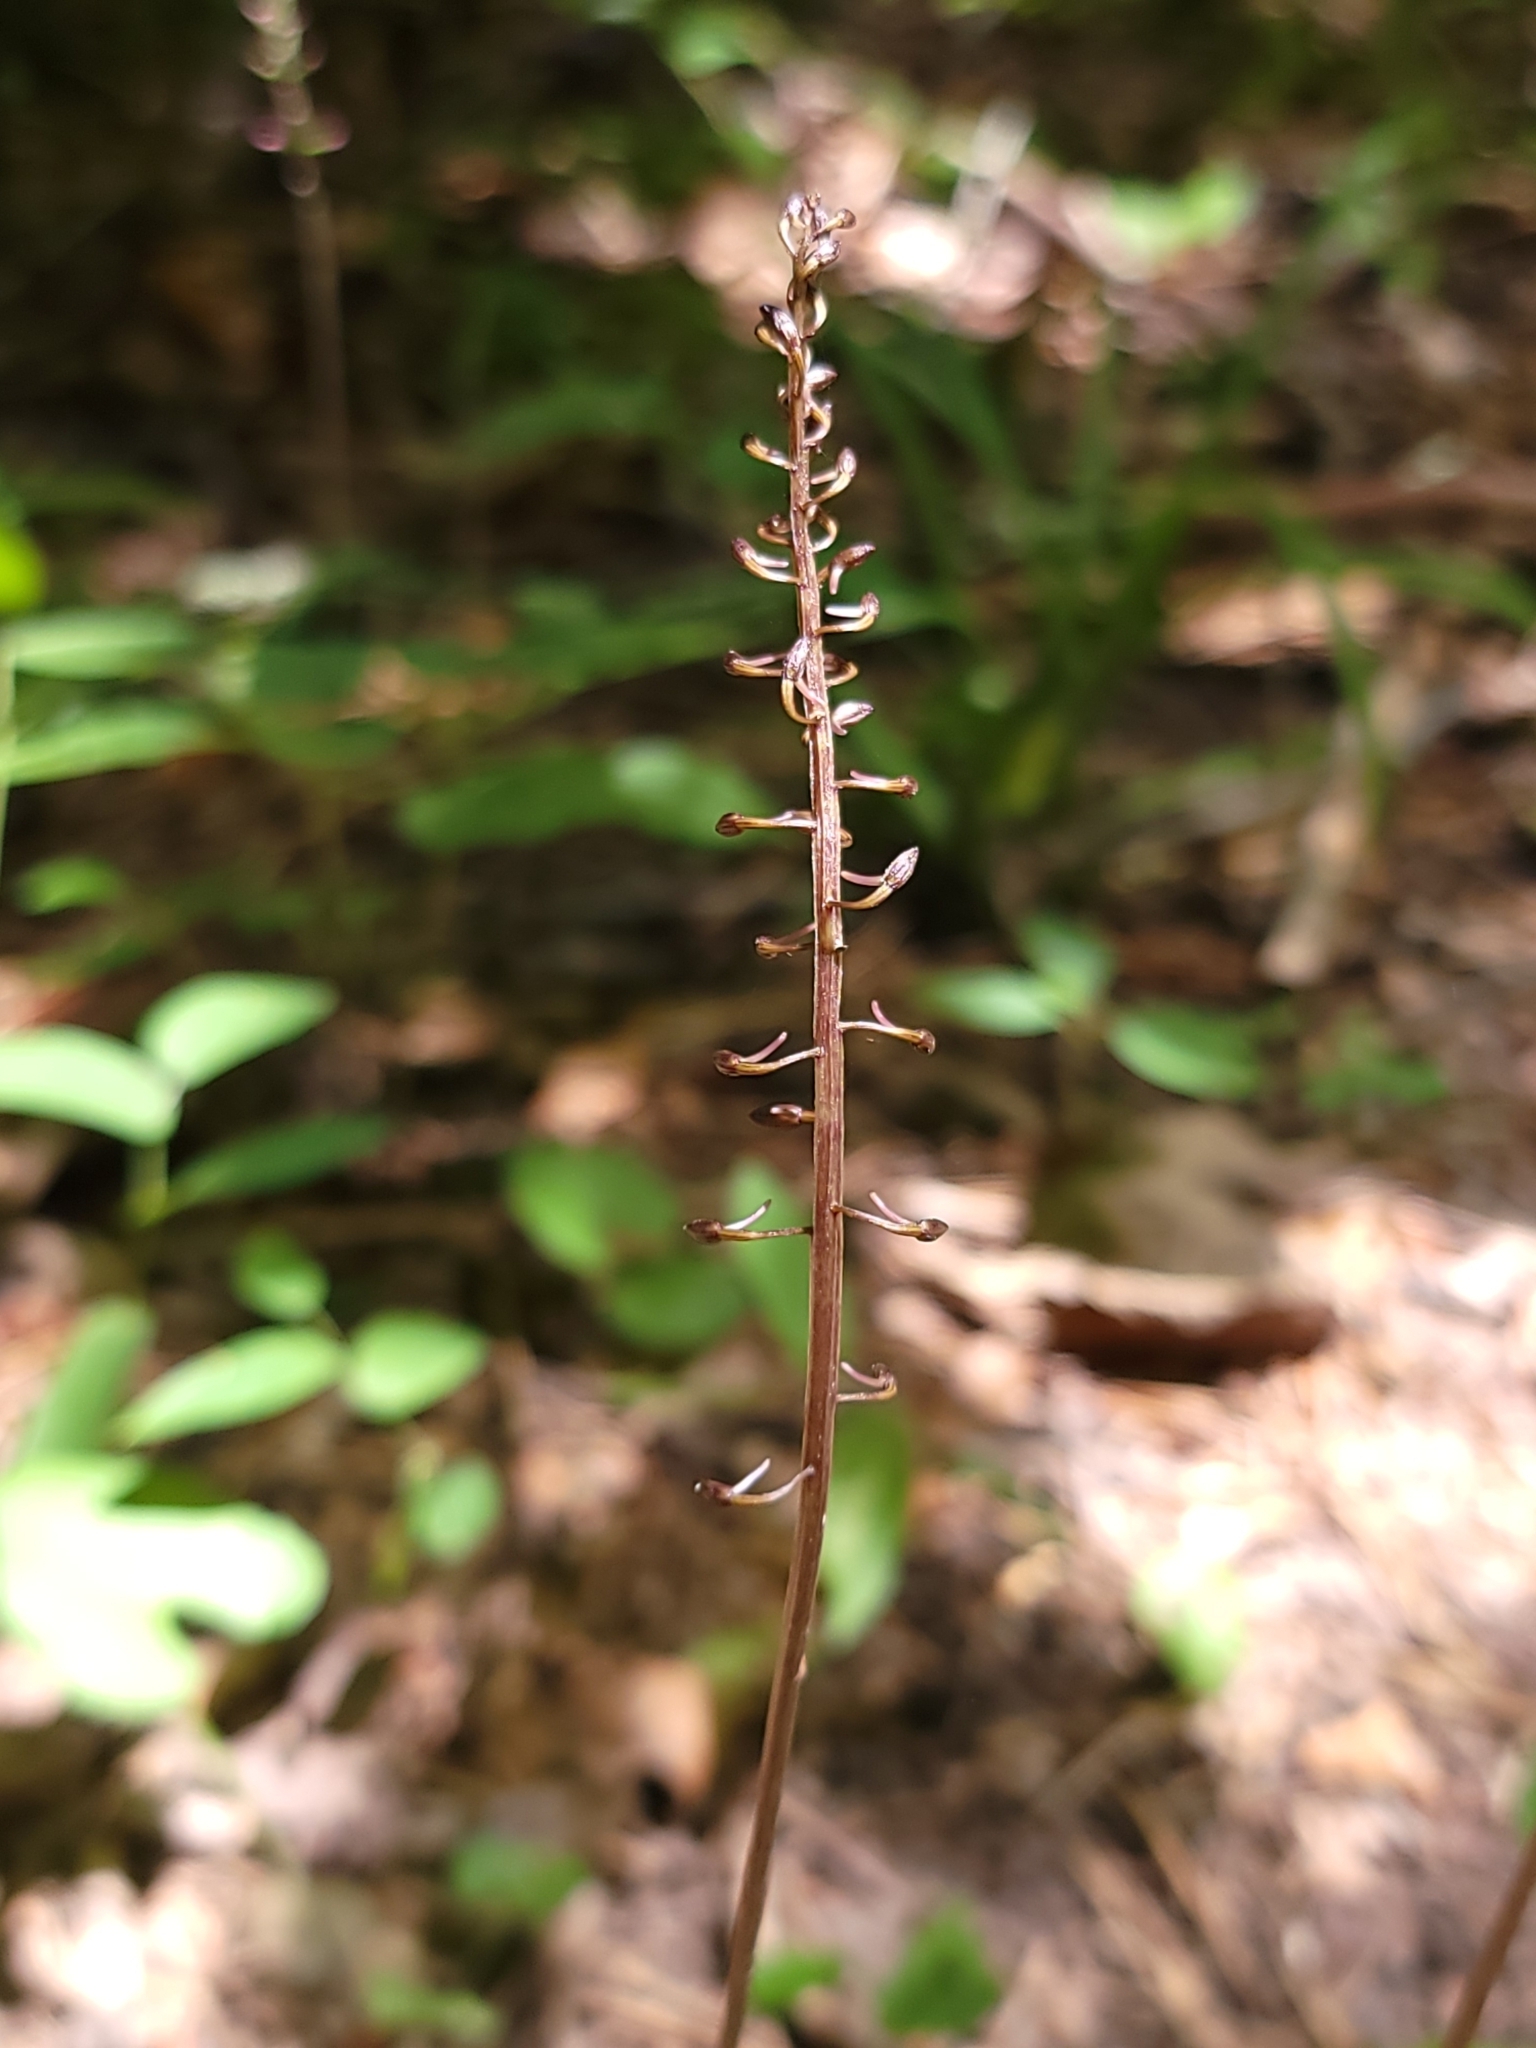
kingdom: Plantae
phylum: Tracheophyta
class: Liliopsida
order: Asparagales
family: Orchidaceae
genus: Tipularia
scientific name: Tipularia discolor
